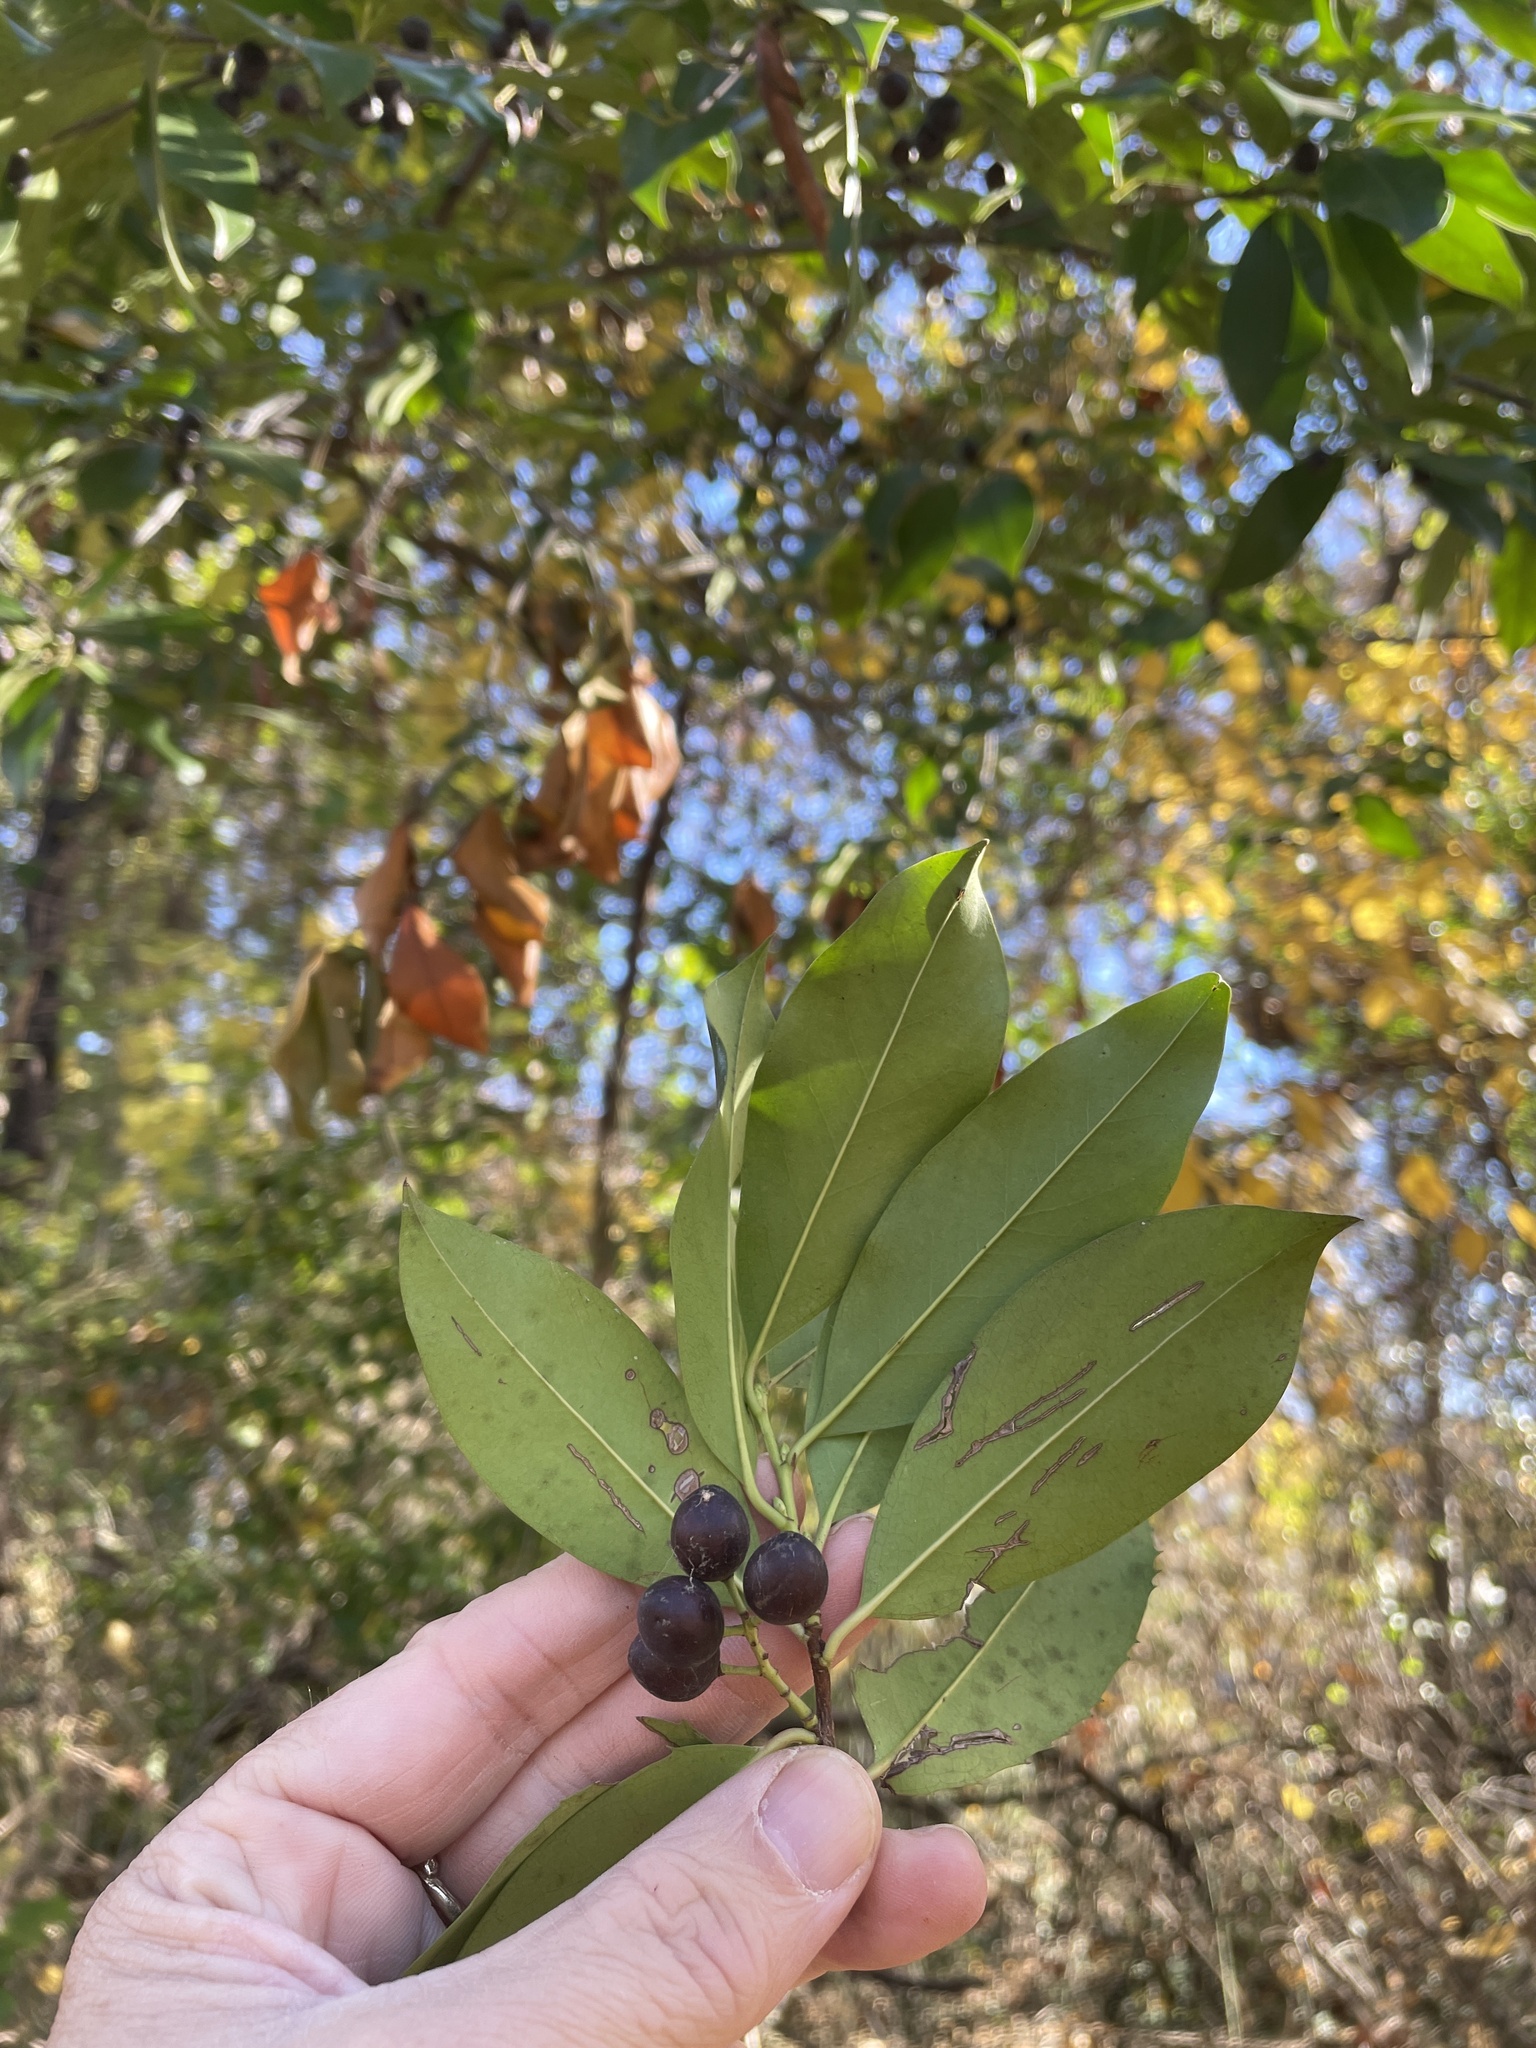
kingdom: Plantae
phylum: Tracheophyta
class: Magnoliopsida
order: Rosales
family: Rosaceae
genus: Prunus
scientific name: Prunus caroliniana
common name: Carolina laurel cherry
